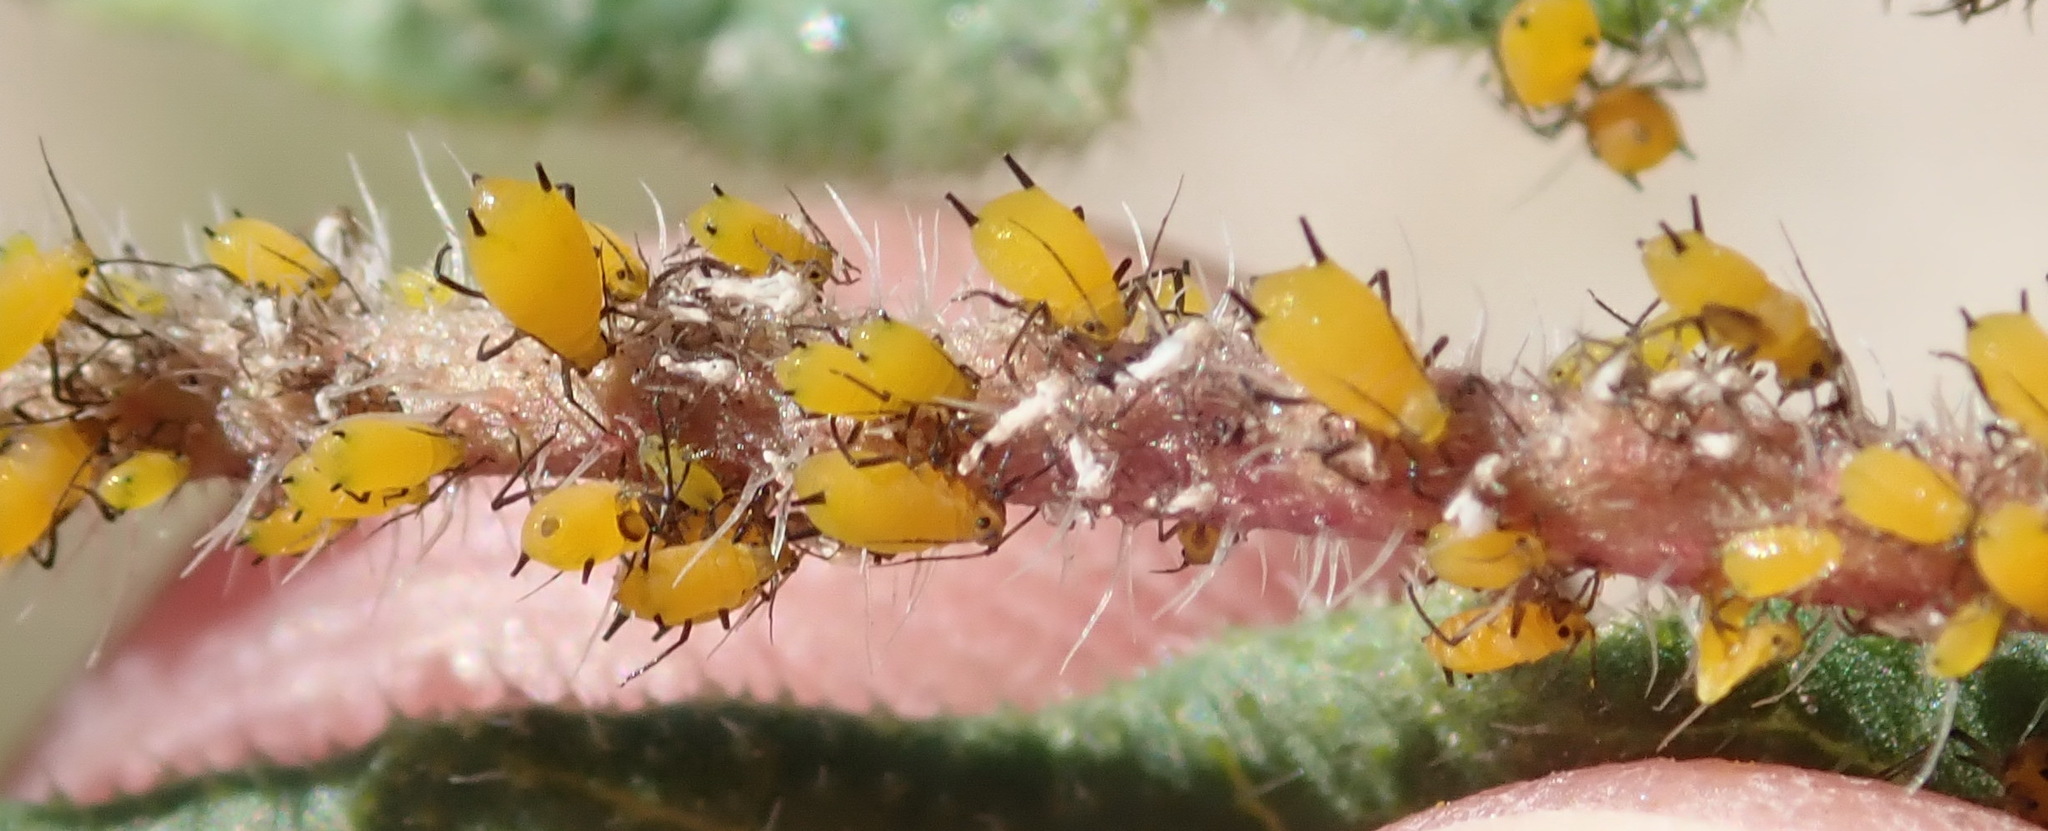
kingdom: Animalia
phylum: Arthropoda
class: Insecta
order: Hemiptera
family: Aphididae
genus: Aphis
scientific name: Aphis nerii
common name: Oleander aphid
